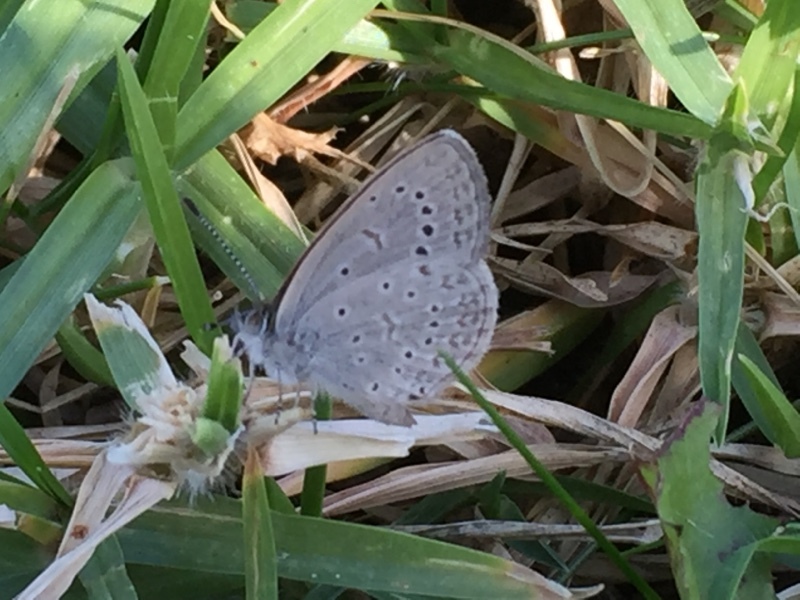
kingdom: Animalia
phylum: Arthropoda
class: Insecta
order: Lepidoptera
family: Lycaenidae
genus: Zizeeria
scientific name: Zizeeria knysna
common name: African grass blue
